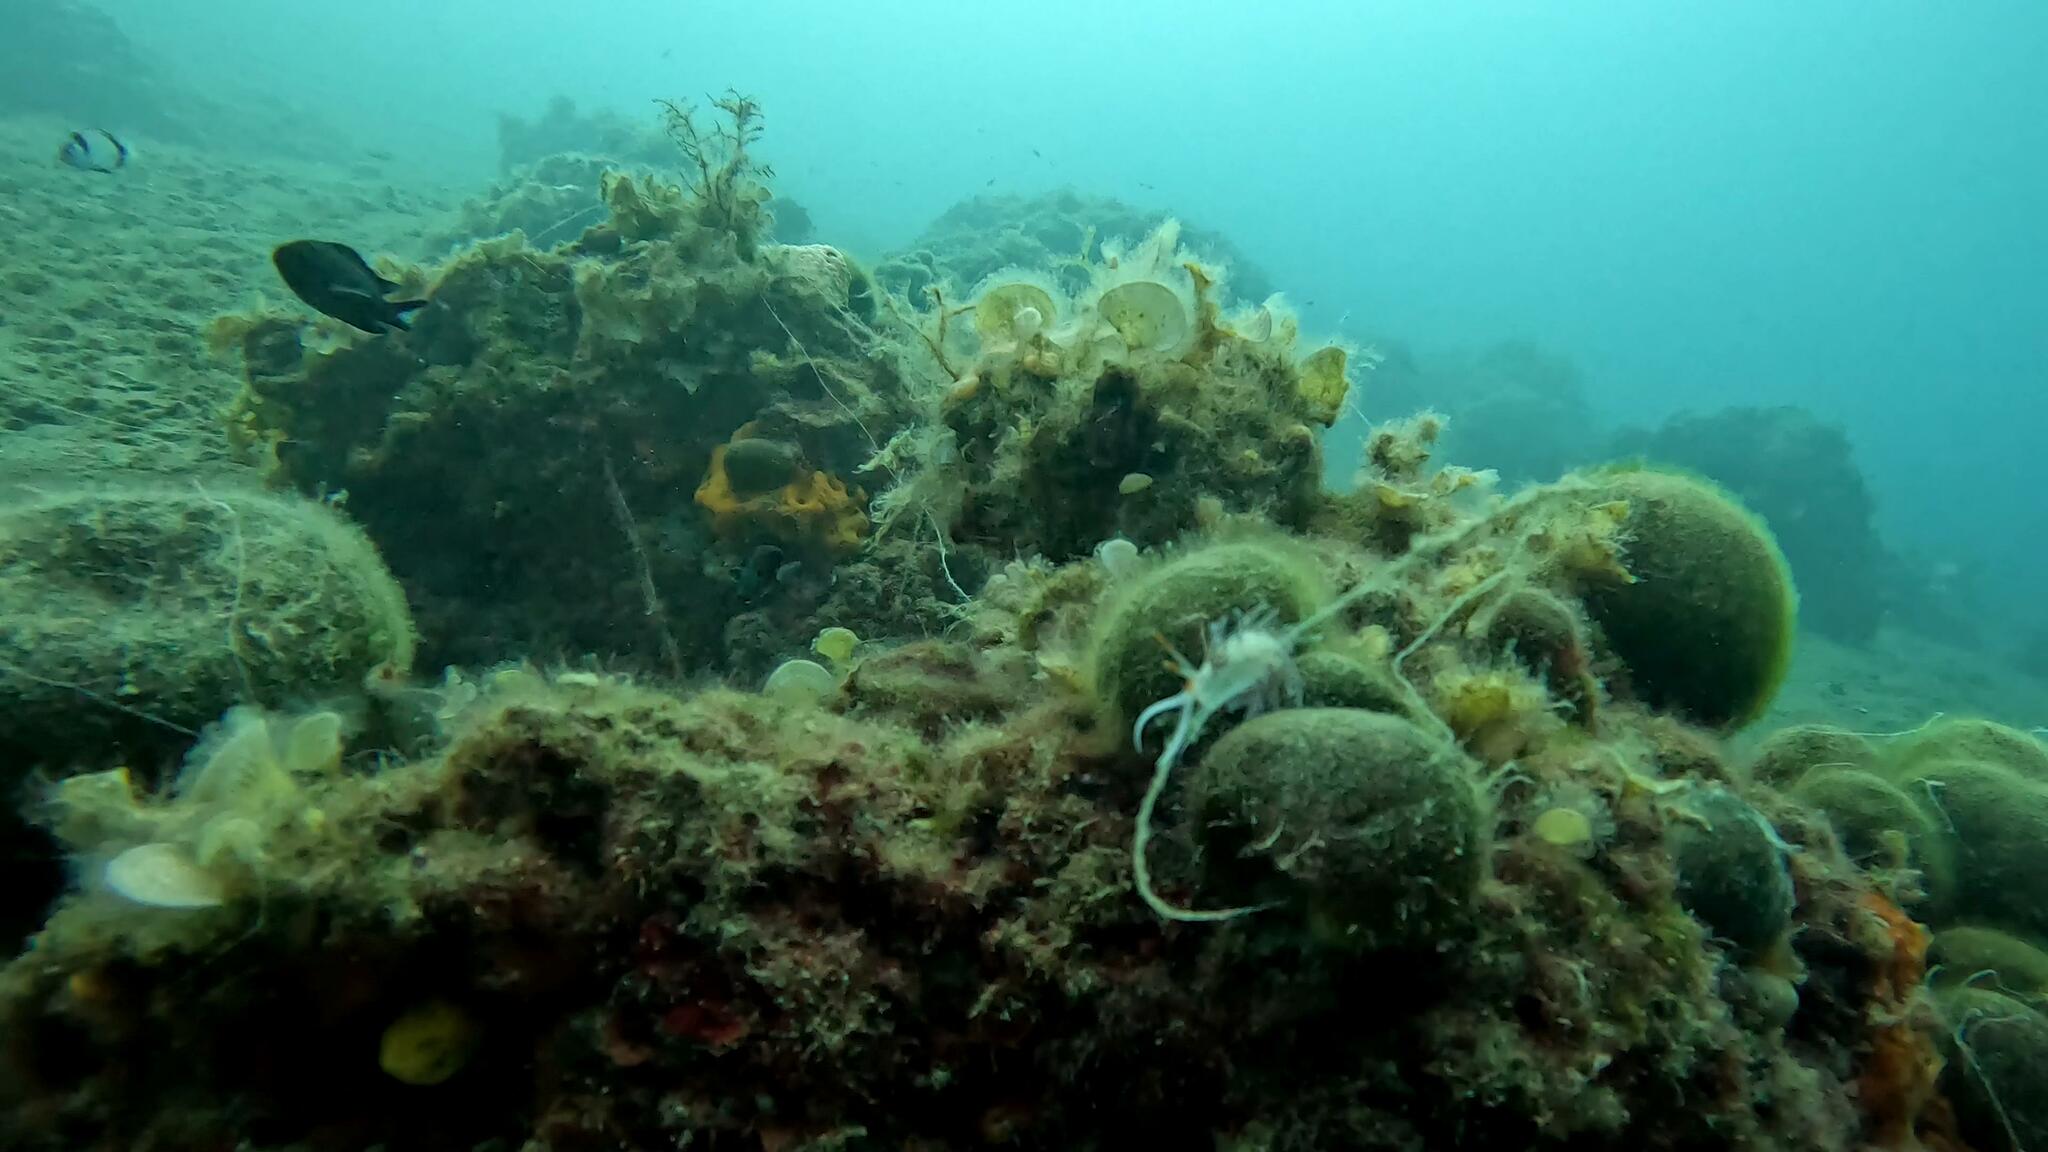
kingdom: Animalia
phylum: Mollusca
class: Gastropoda
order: Nudibranchia
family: Facelinidae
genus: Cratena
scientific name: Cratena peregrina
